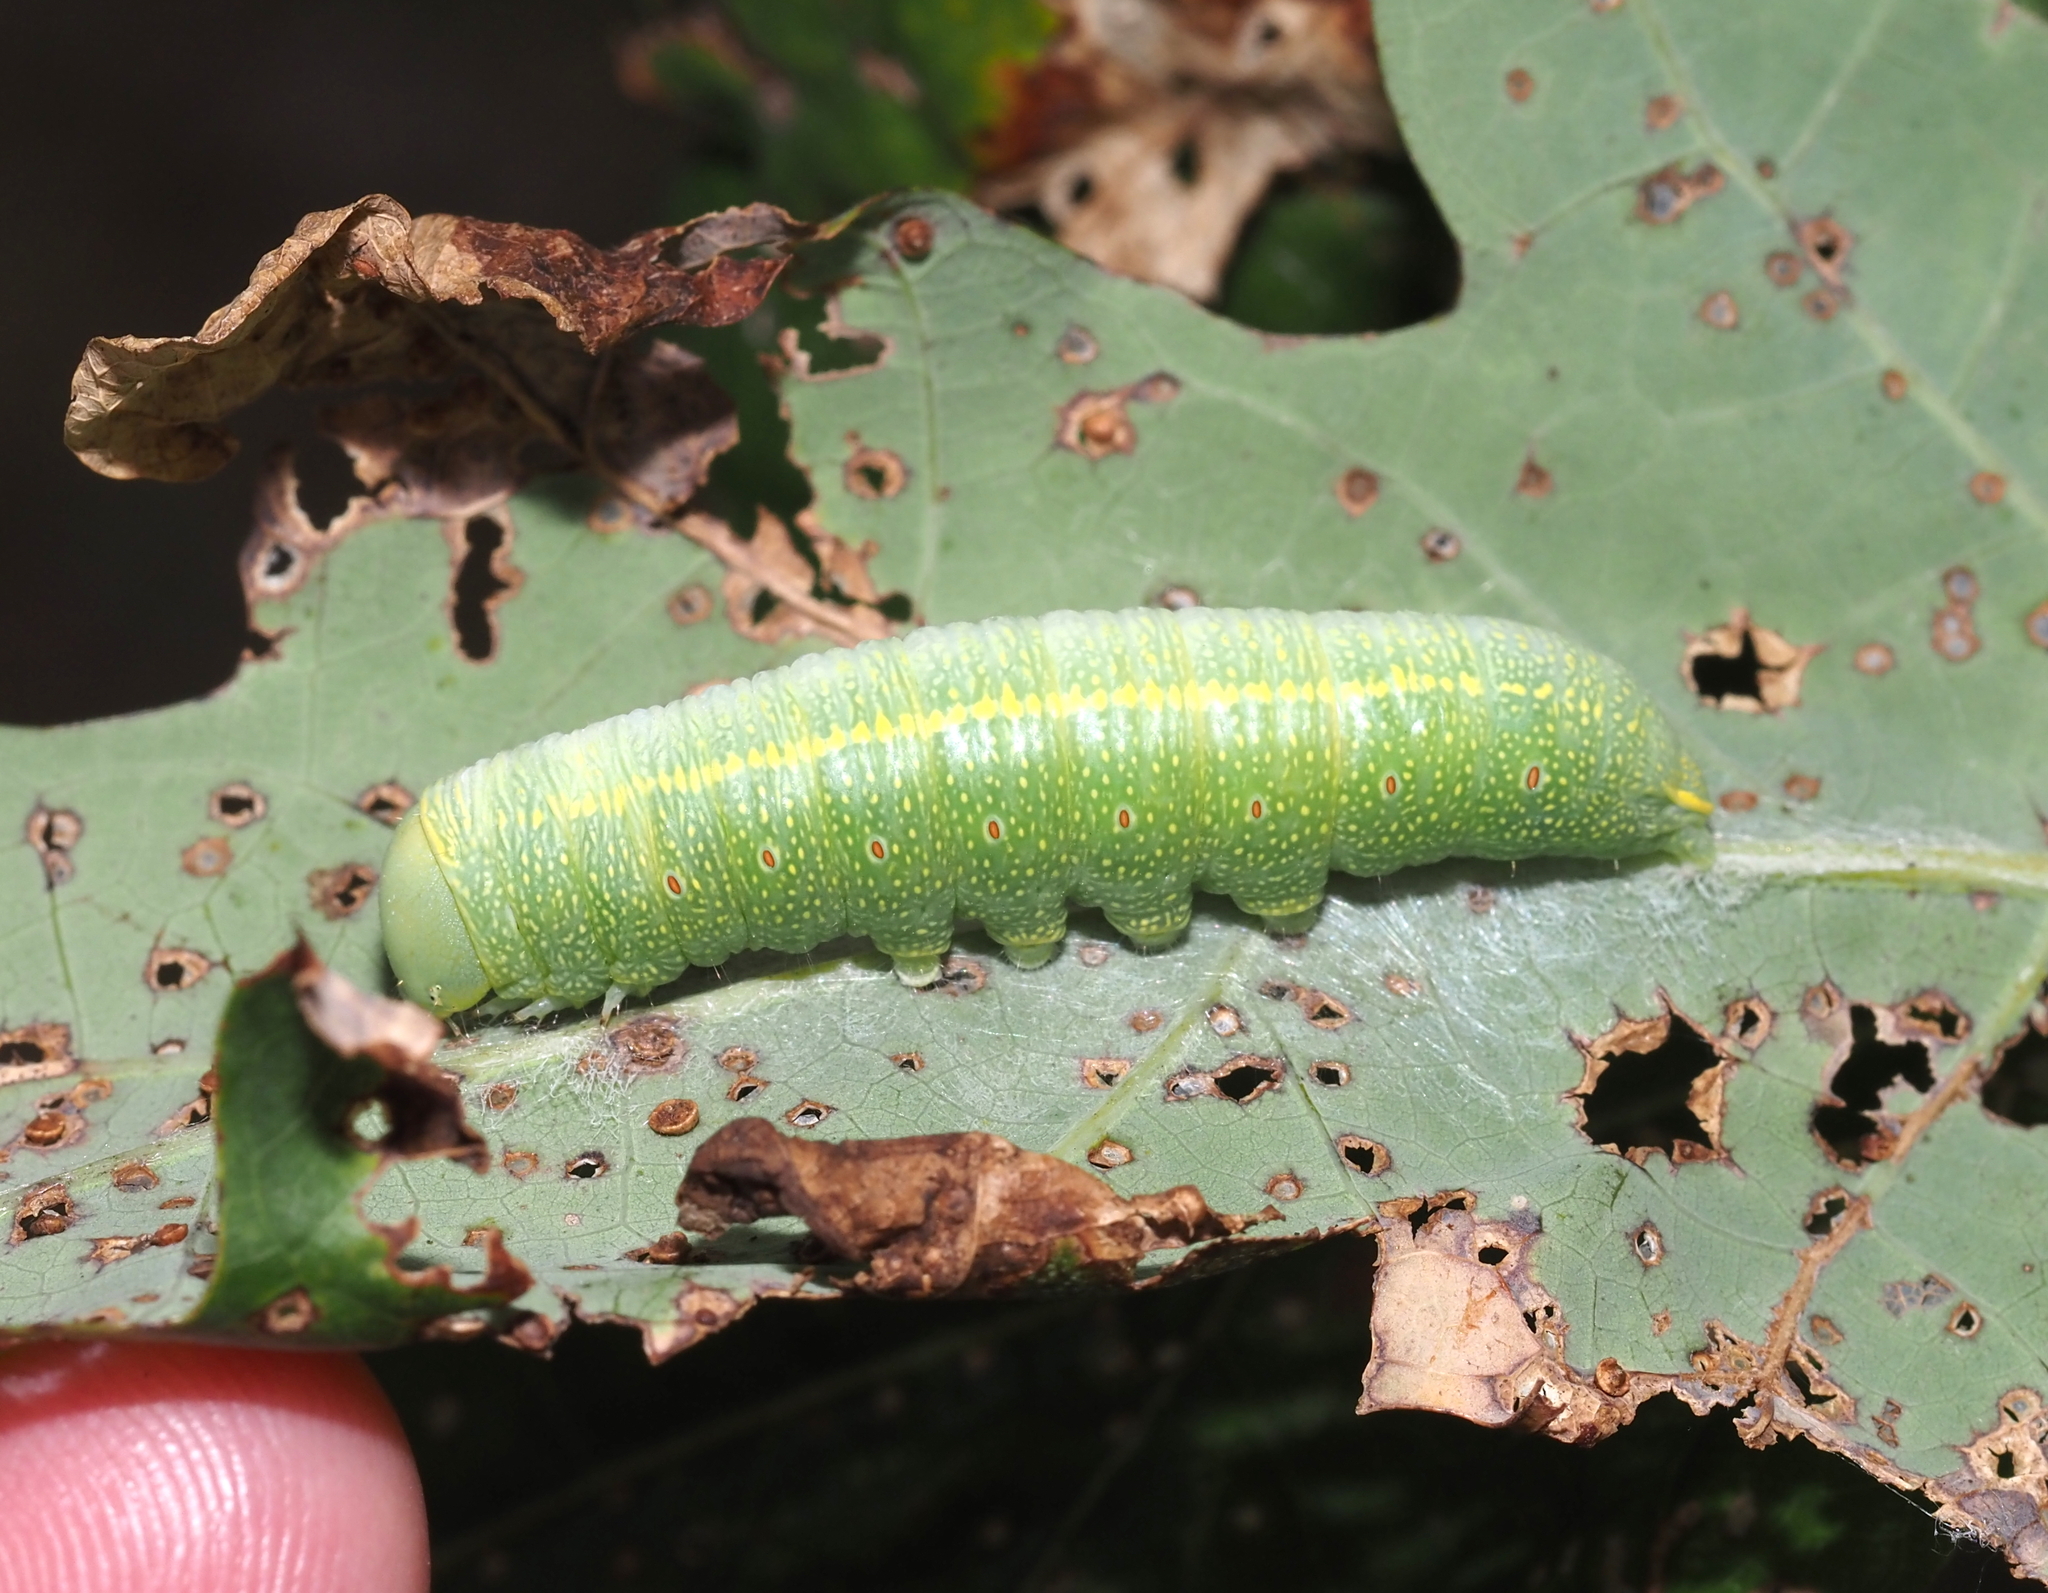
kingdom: Animalia
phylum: Arthropoda
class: Insecta
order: Lepidoptera
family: Notodontidae
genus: Nadata
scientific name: Nadata gibbosa
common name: White-dotted prominent
